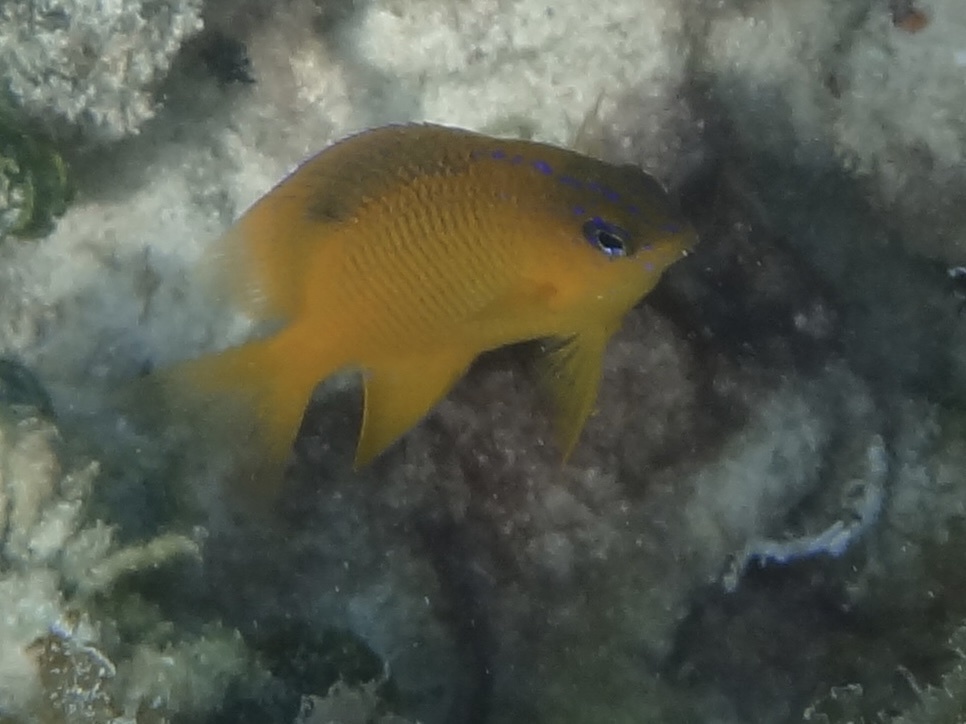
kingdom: Animalia
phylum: Chordata
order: Perciformes
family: Pomacentridae
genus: Stegastes
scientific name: Stegastes diencaeus
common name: Longfin damselfish
